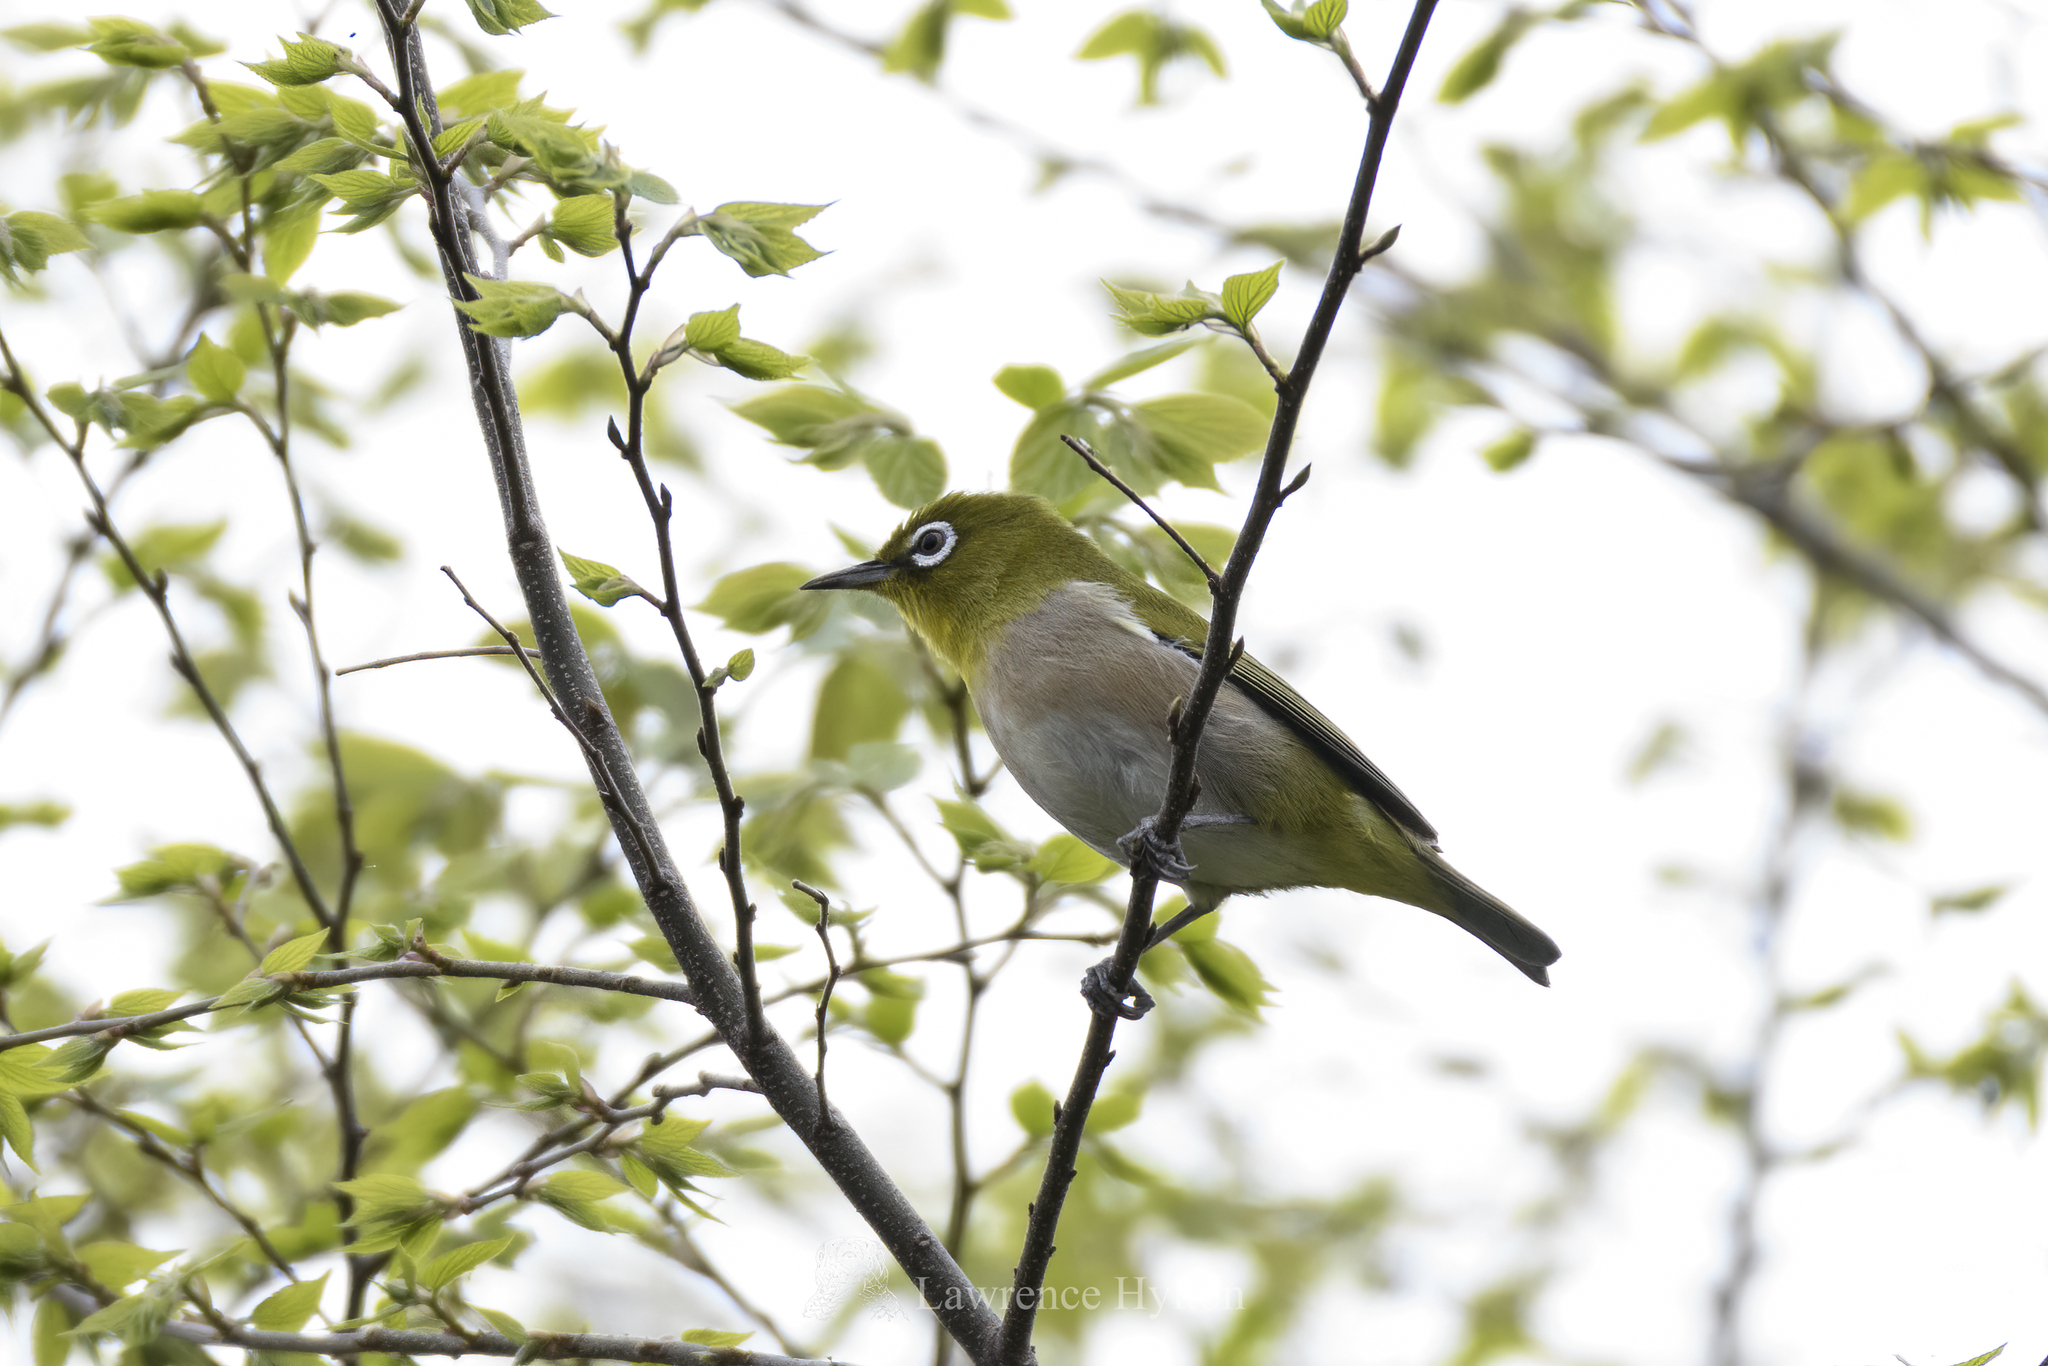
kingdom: Animalia
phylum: Chordata
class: Aves
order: Passeriformes
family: Zosteropidae
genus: Zosterops
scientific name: Zosterops japonicus
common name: Japanese white-eye
